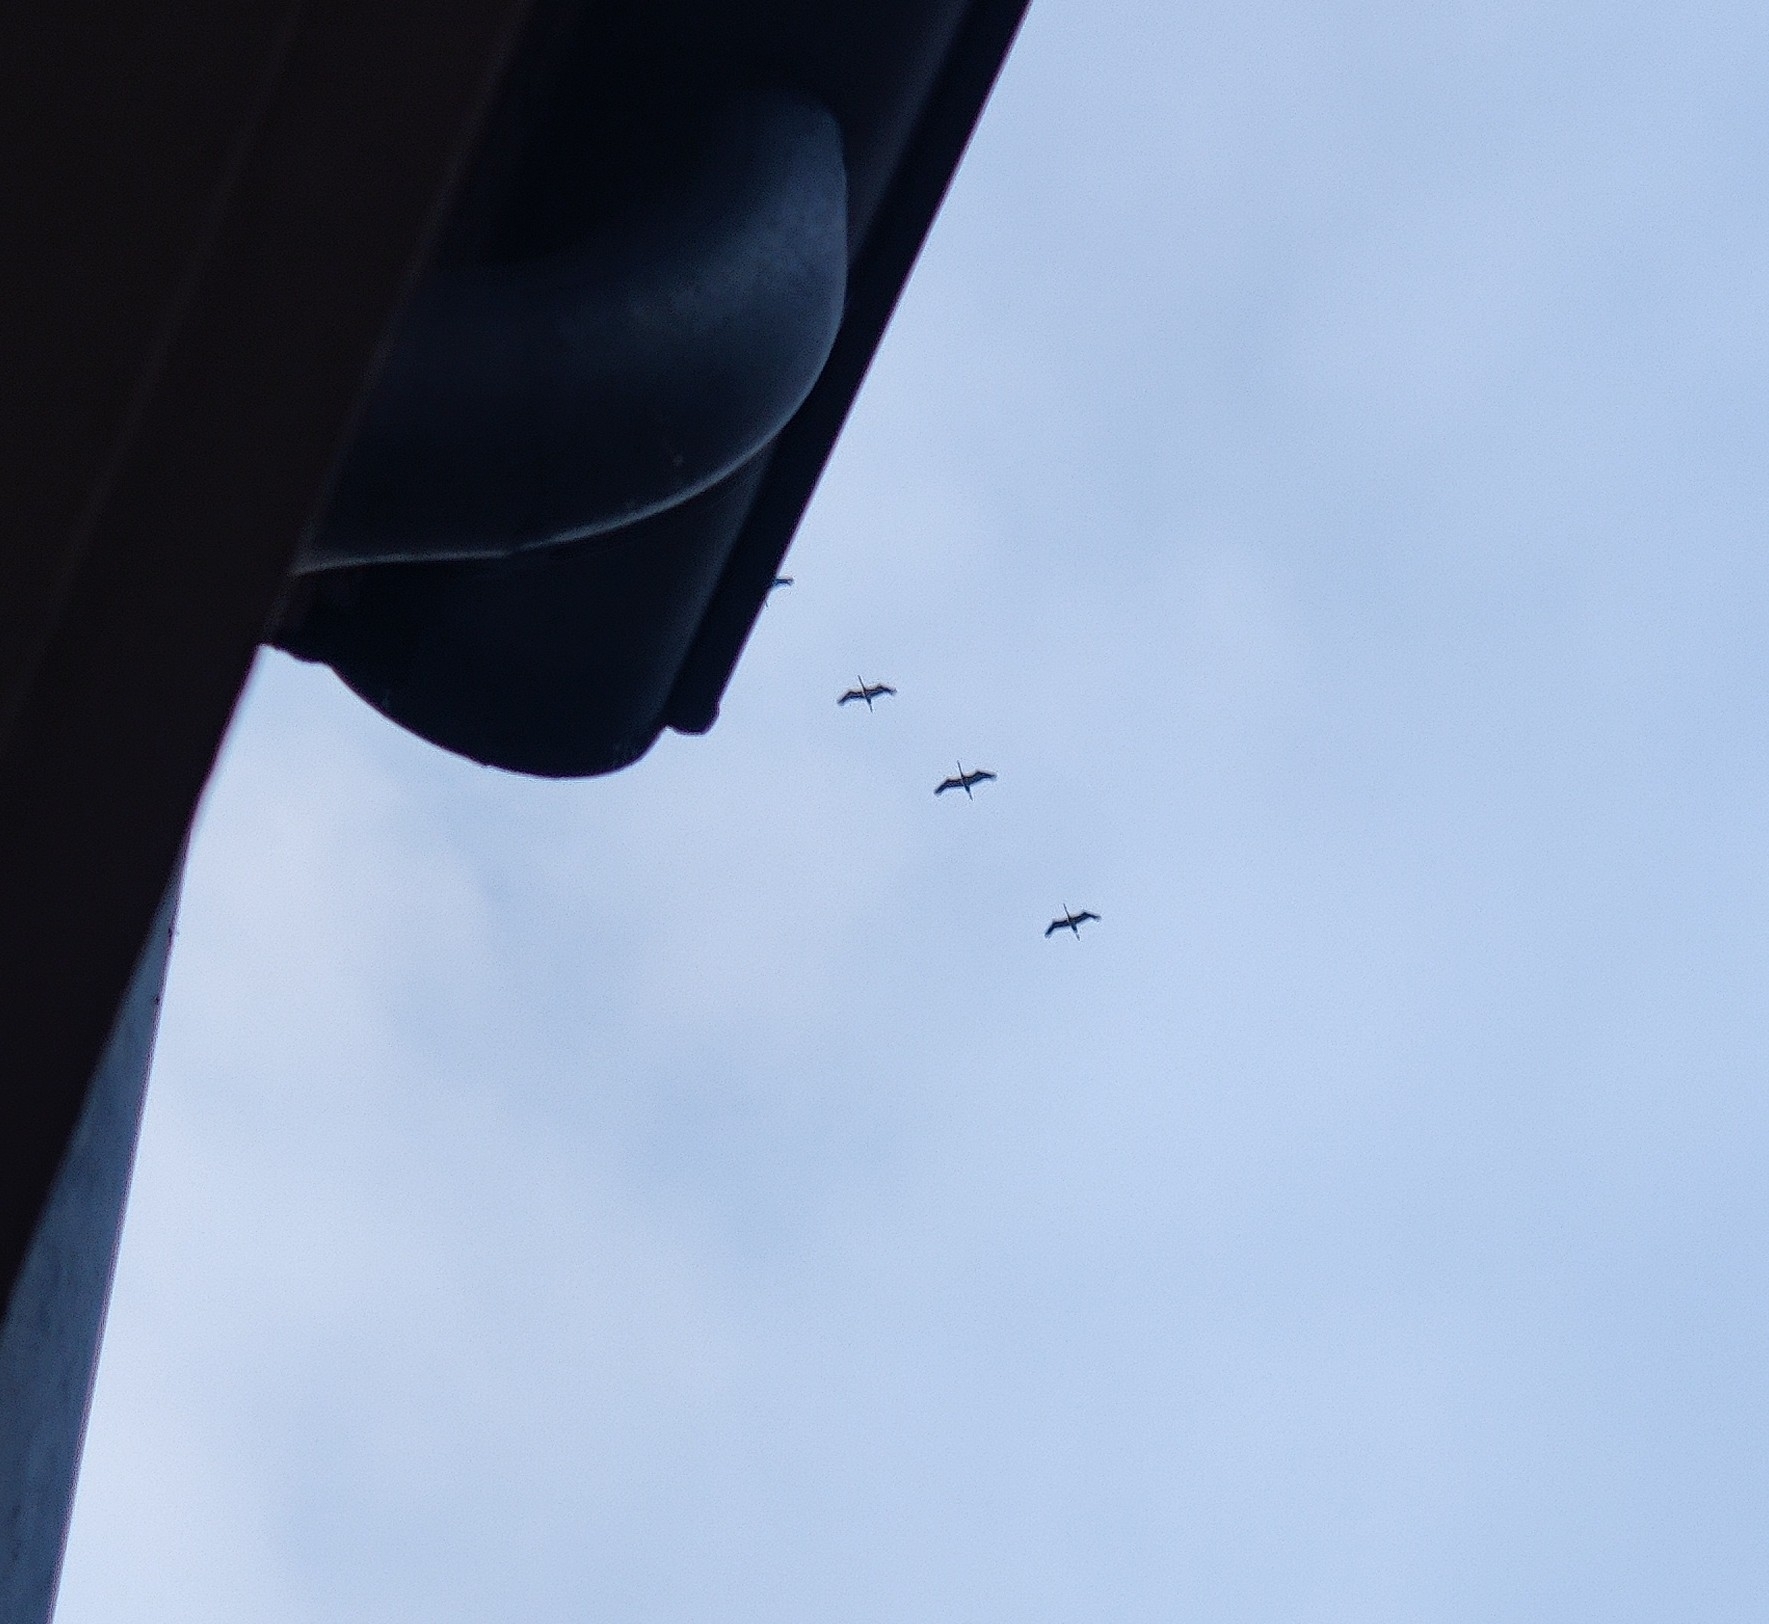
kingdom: Animalia
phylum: Chordata
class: Aves
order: Gruiformes
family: Gruidae
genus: Grus
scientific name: Grus grus
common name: Common crane
